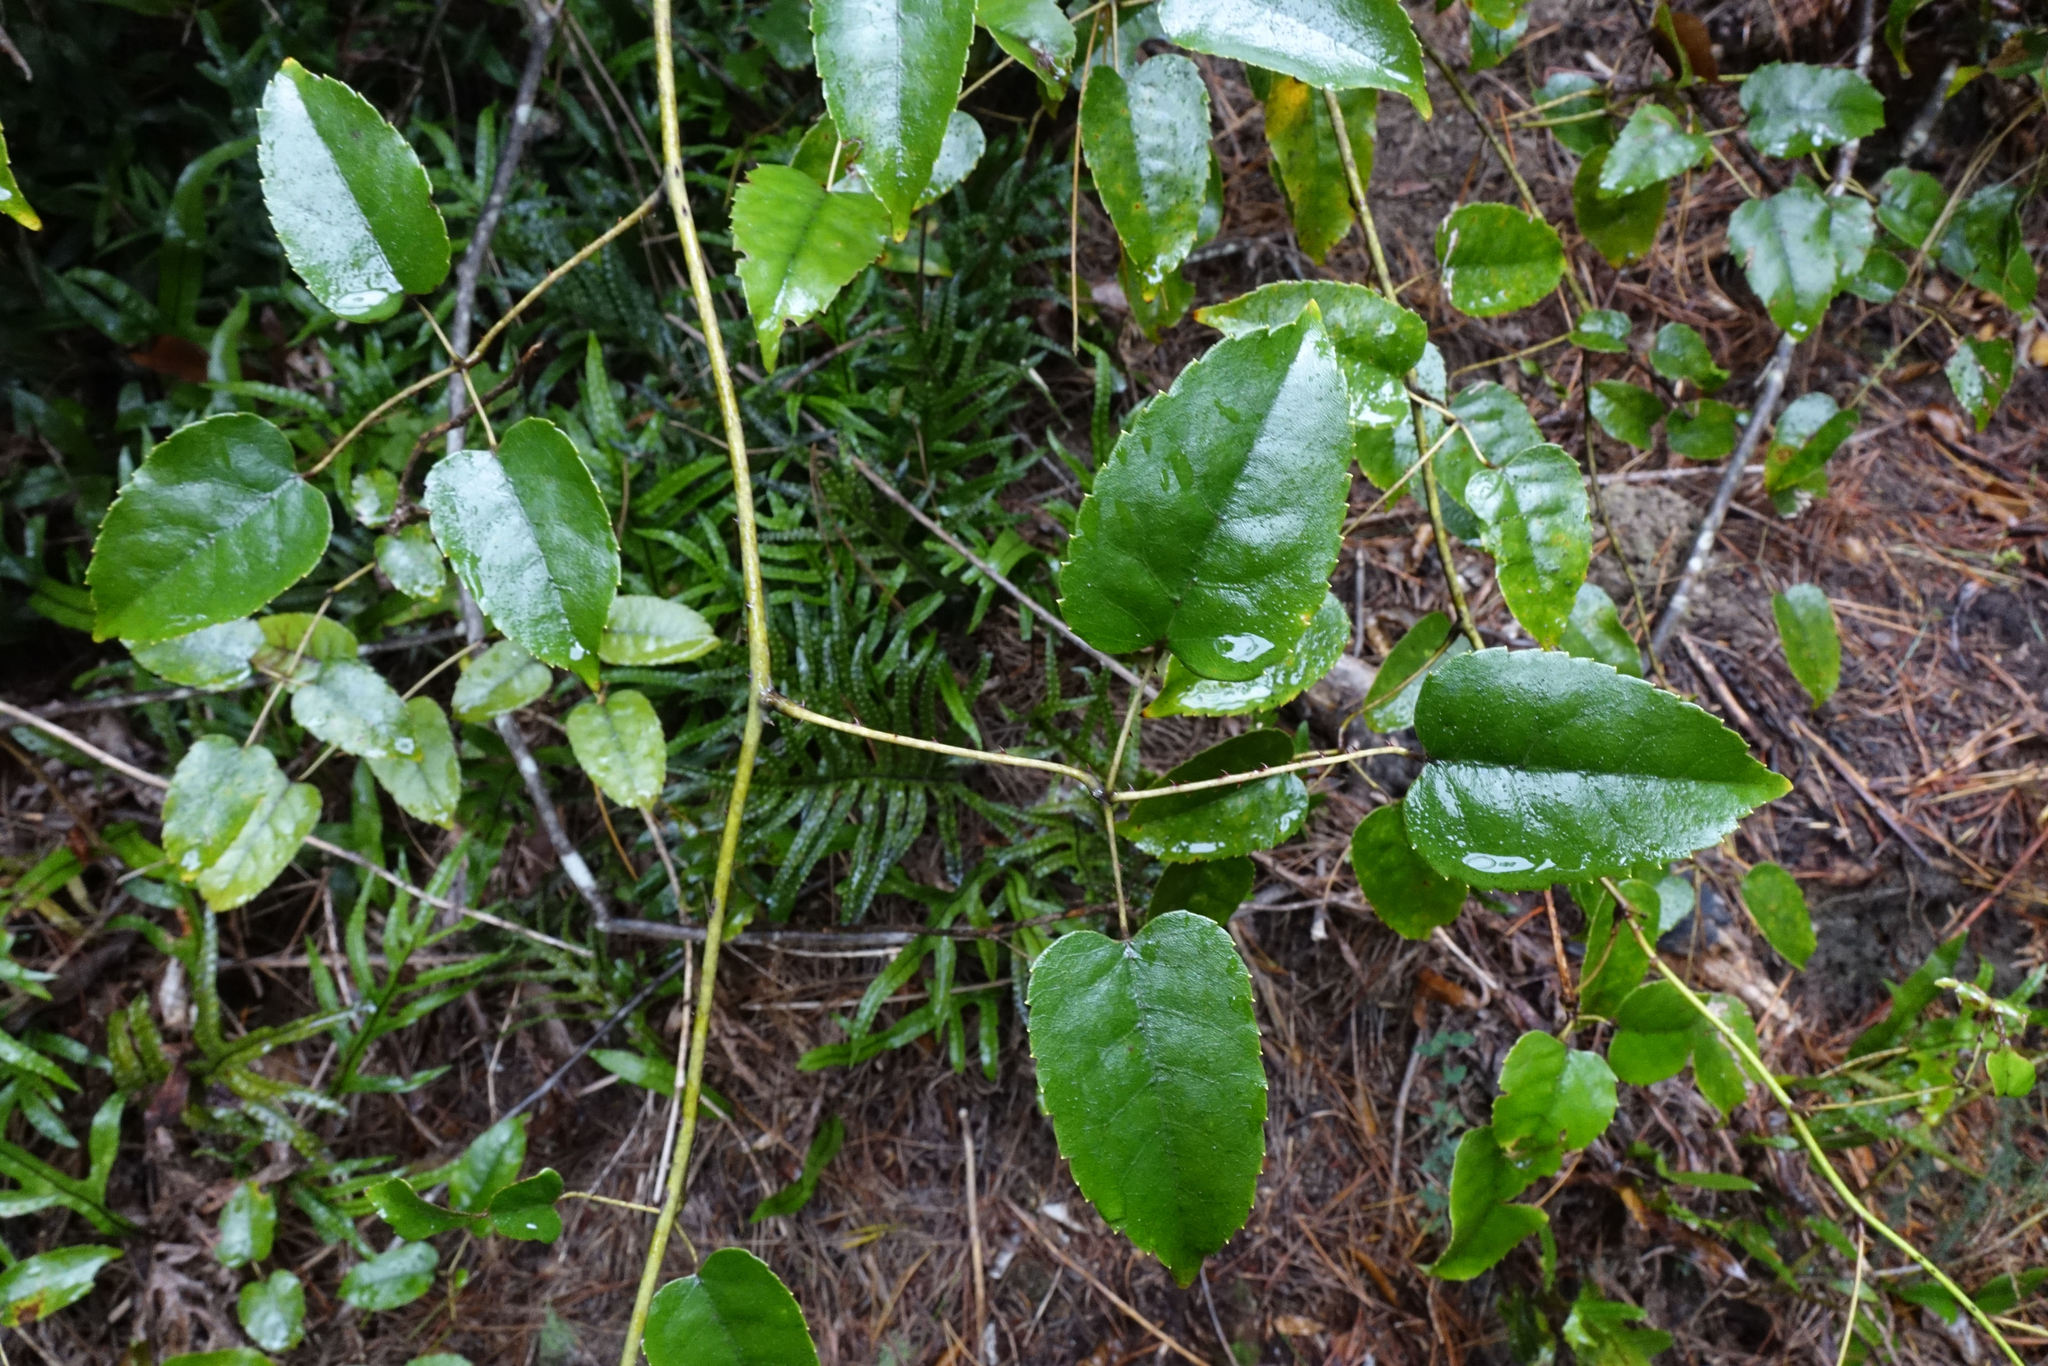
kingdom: Plantae
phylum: Tracheophyta
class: Magnoliopsida
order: Rosales
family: Rosaceae
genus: Rubus
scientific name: Rubus cissoides
